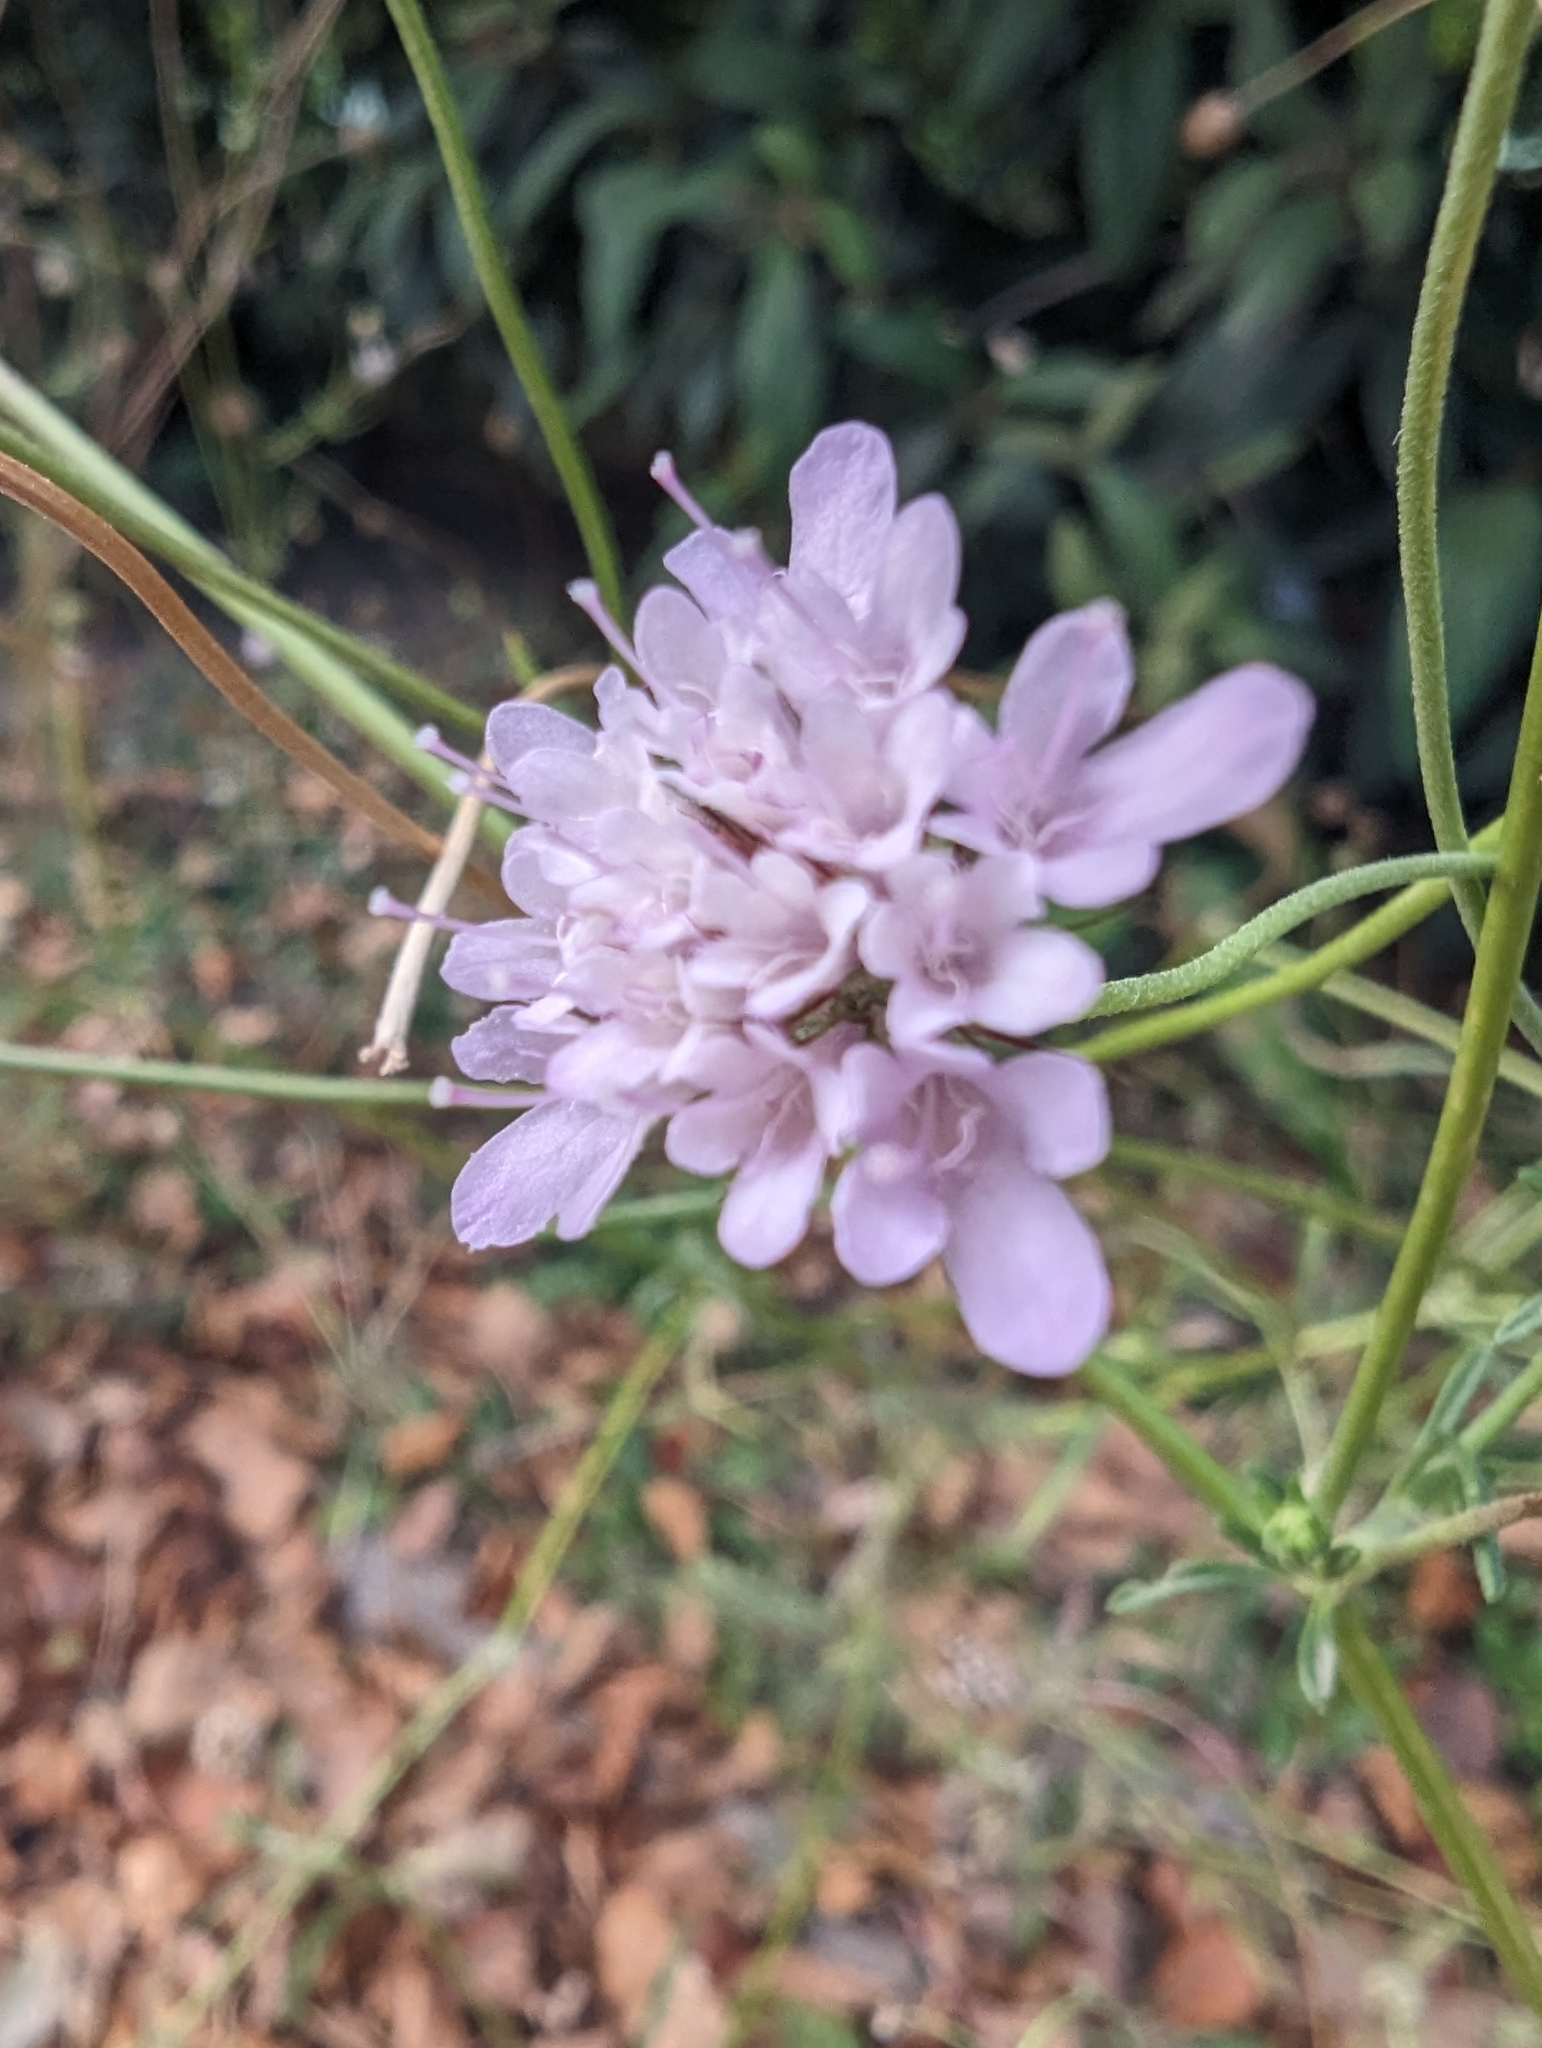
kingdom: Plantae
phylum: Tracheophyta
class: Magnoliopsida
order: Dipsacales
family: Caprifoliaceae
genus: Sixalix
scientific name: Sixalix atropurpurea
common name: Sweet scabious
